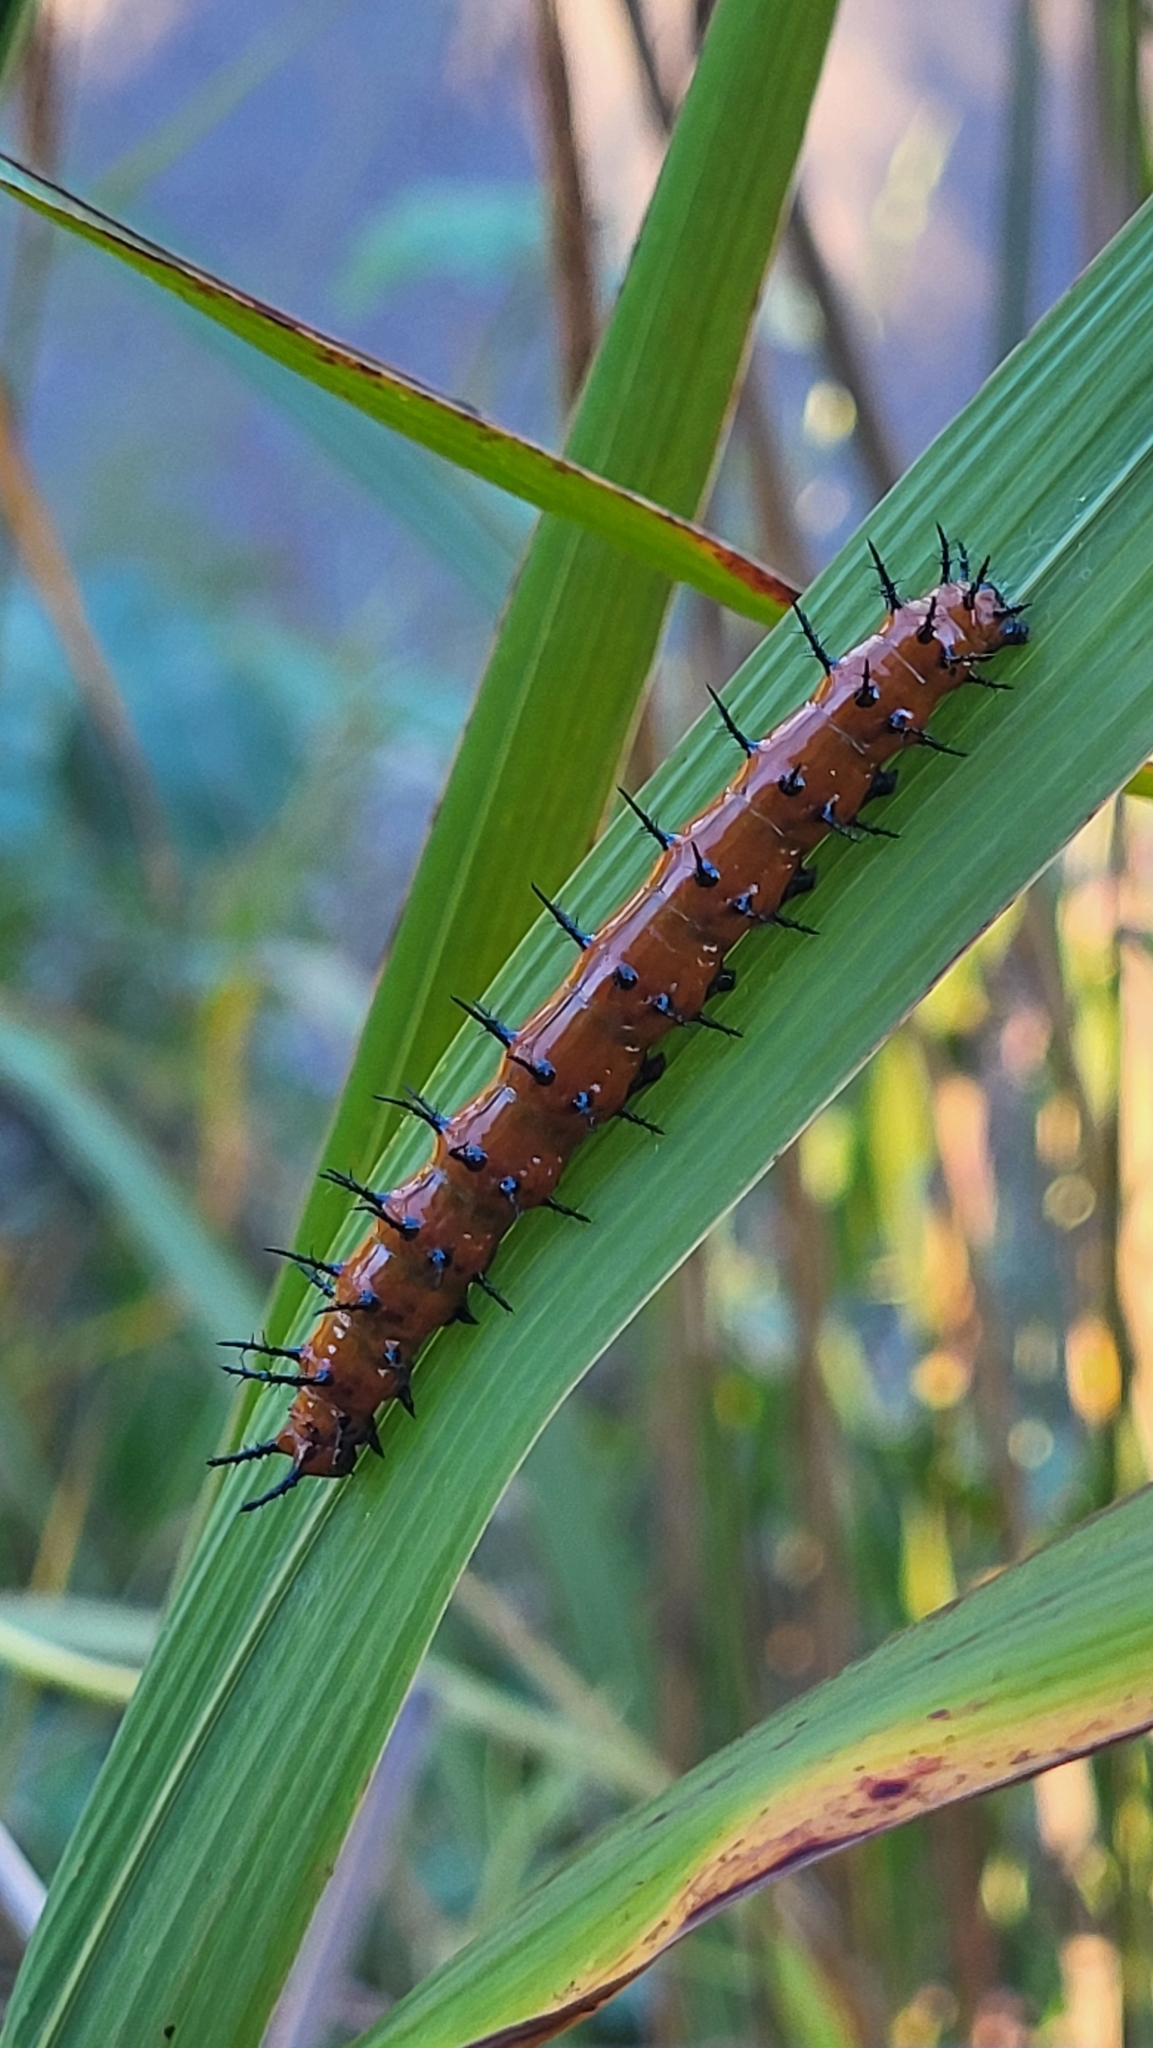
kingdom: Animalia
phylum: Arthropoda
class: Insecta
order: Lepidoptera
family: Nymphalidae
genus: Dione
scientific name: Dione vanillae
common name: Gulf fritillary
